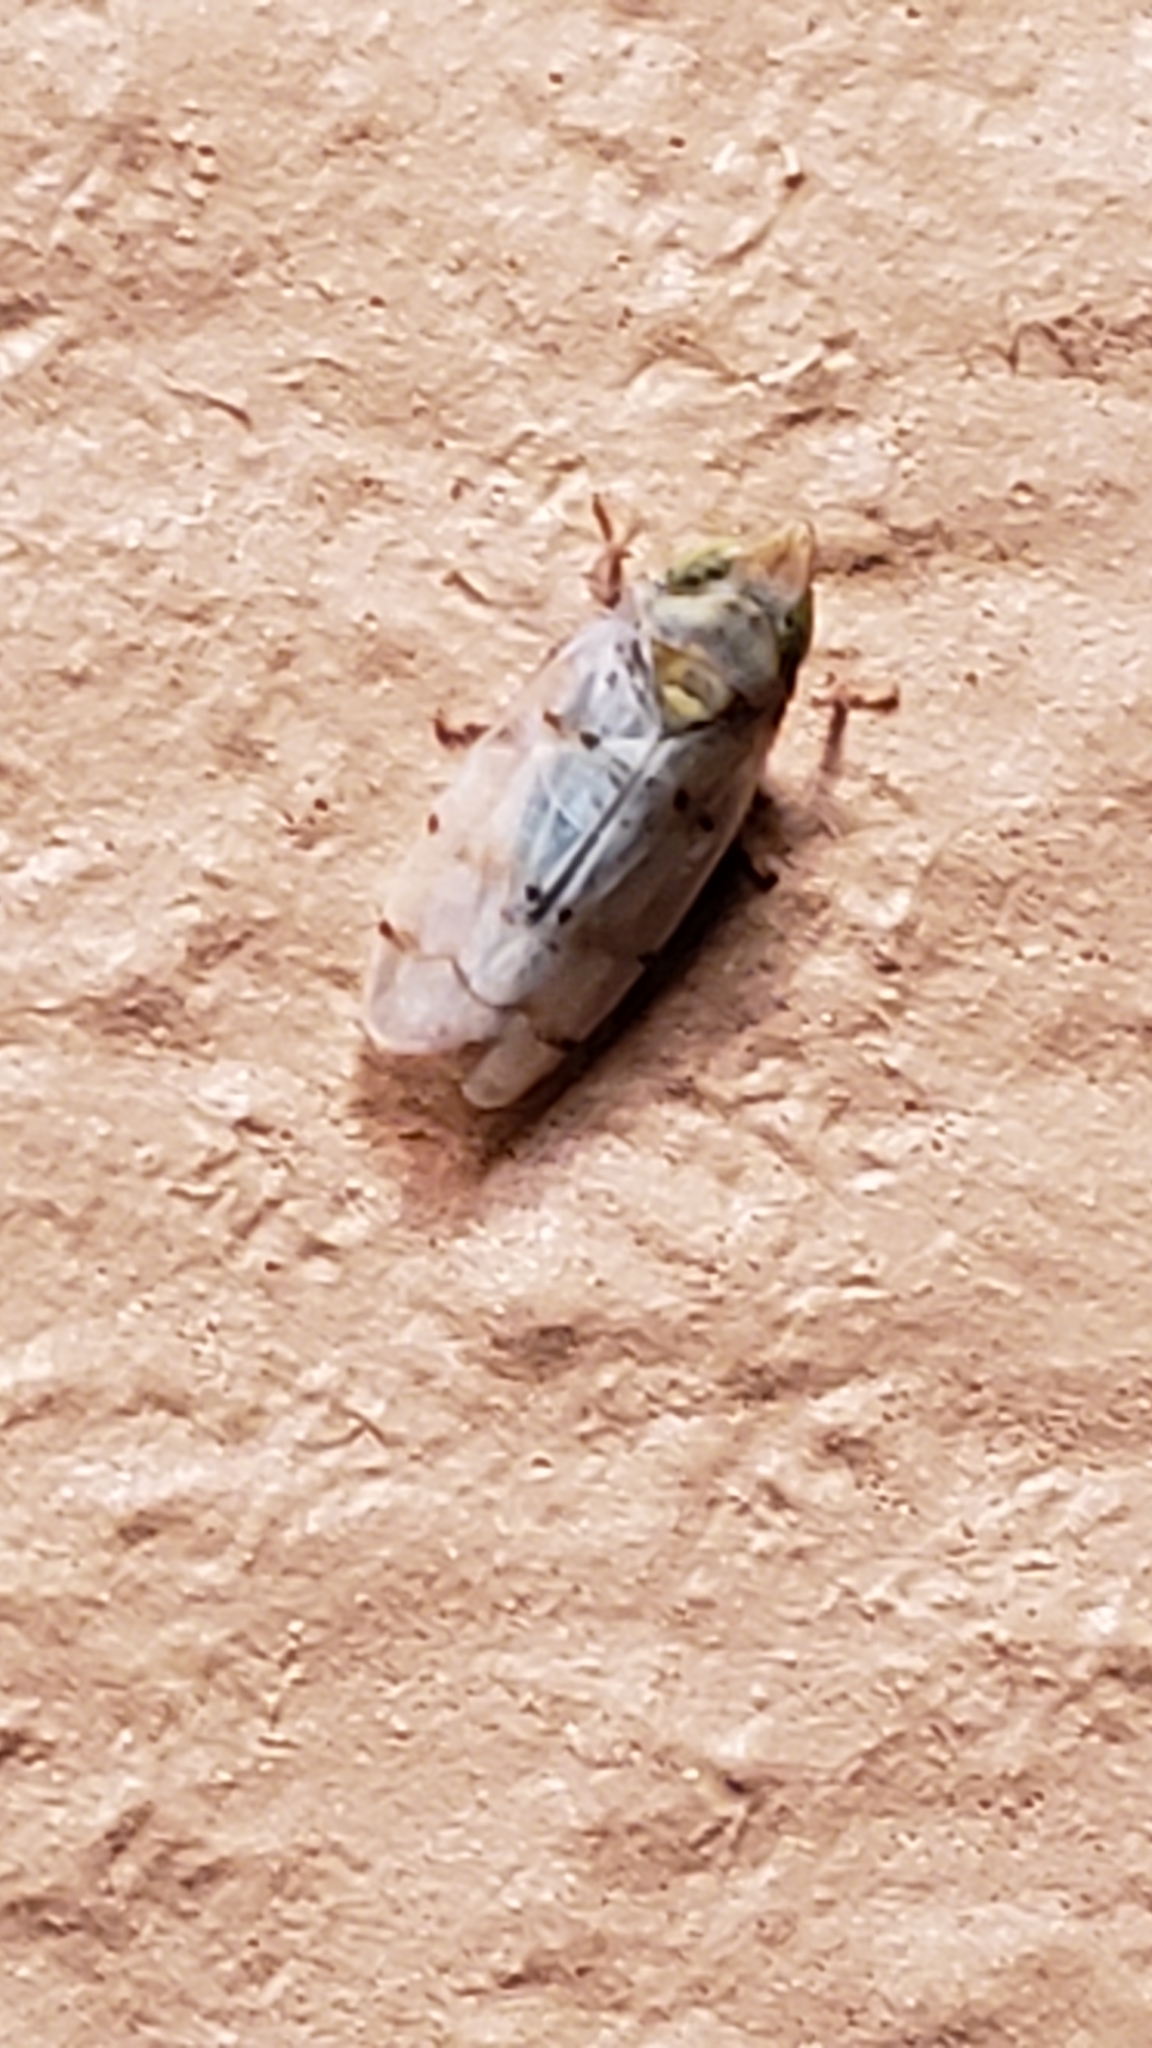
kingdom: Animalia
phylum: Arthropoda
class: Insecta
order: Hemiptera
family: Cicadellidae
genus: Japananus
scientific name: Japananus hyalinus
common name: The japanese maple leafhopper
